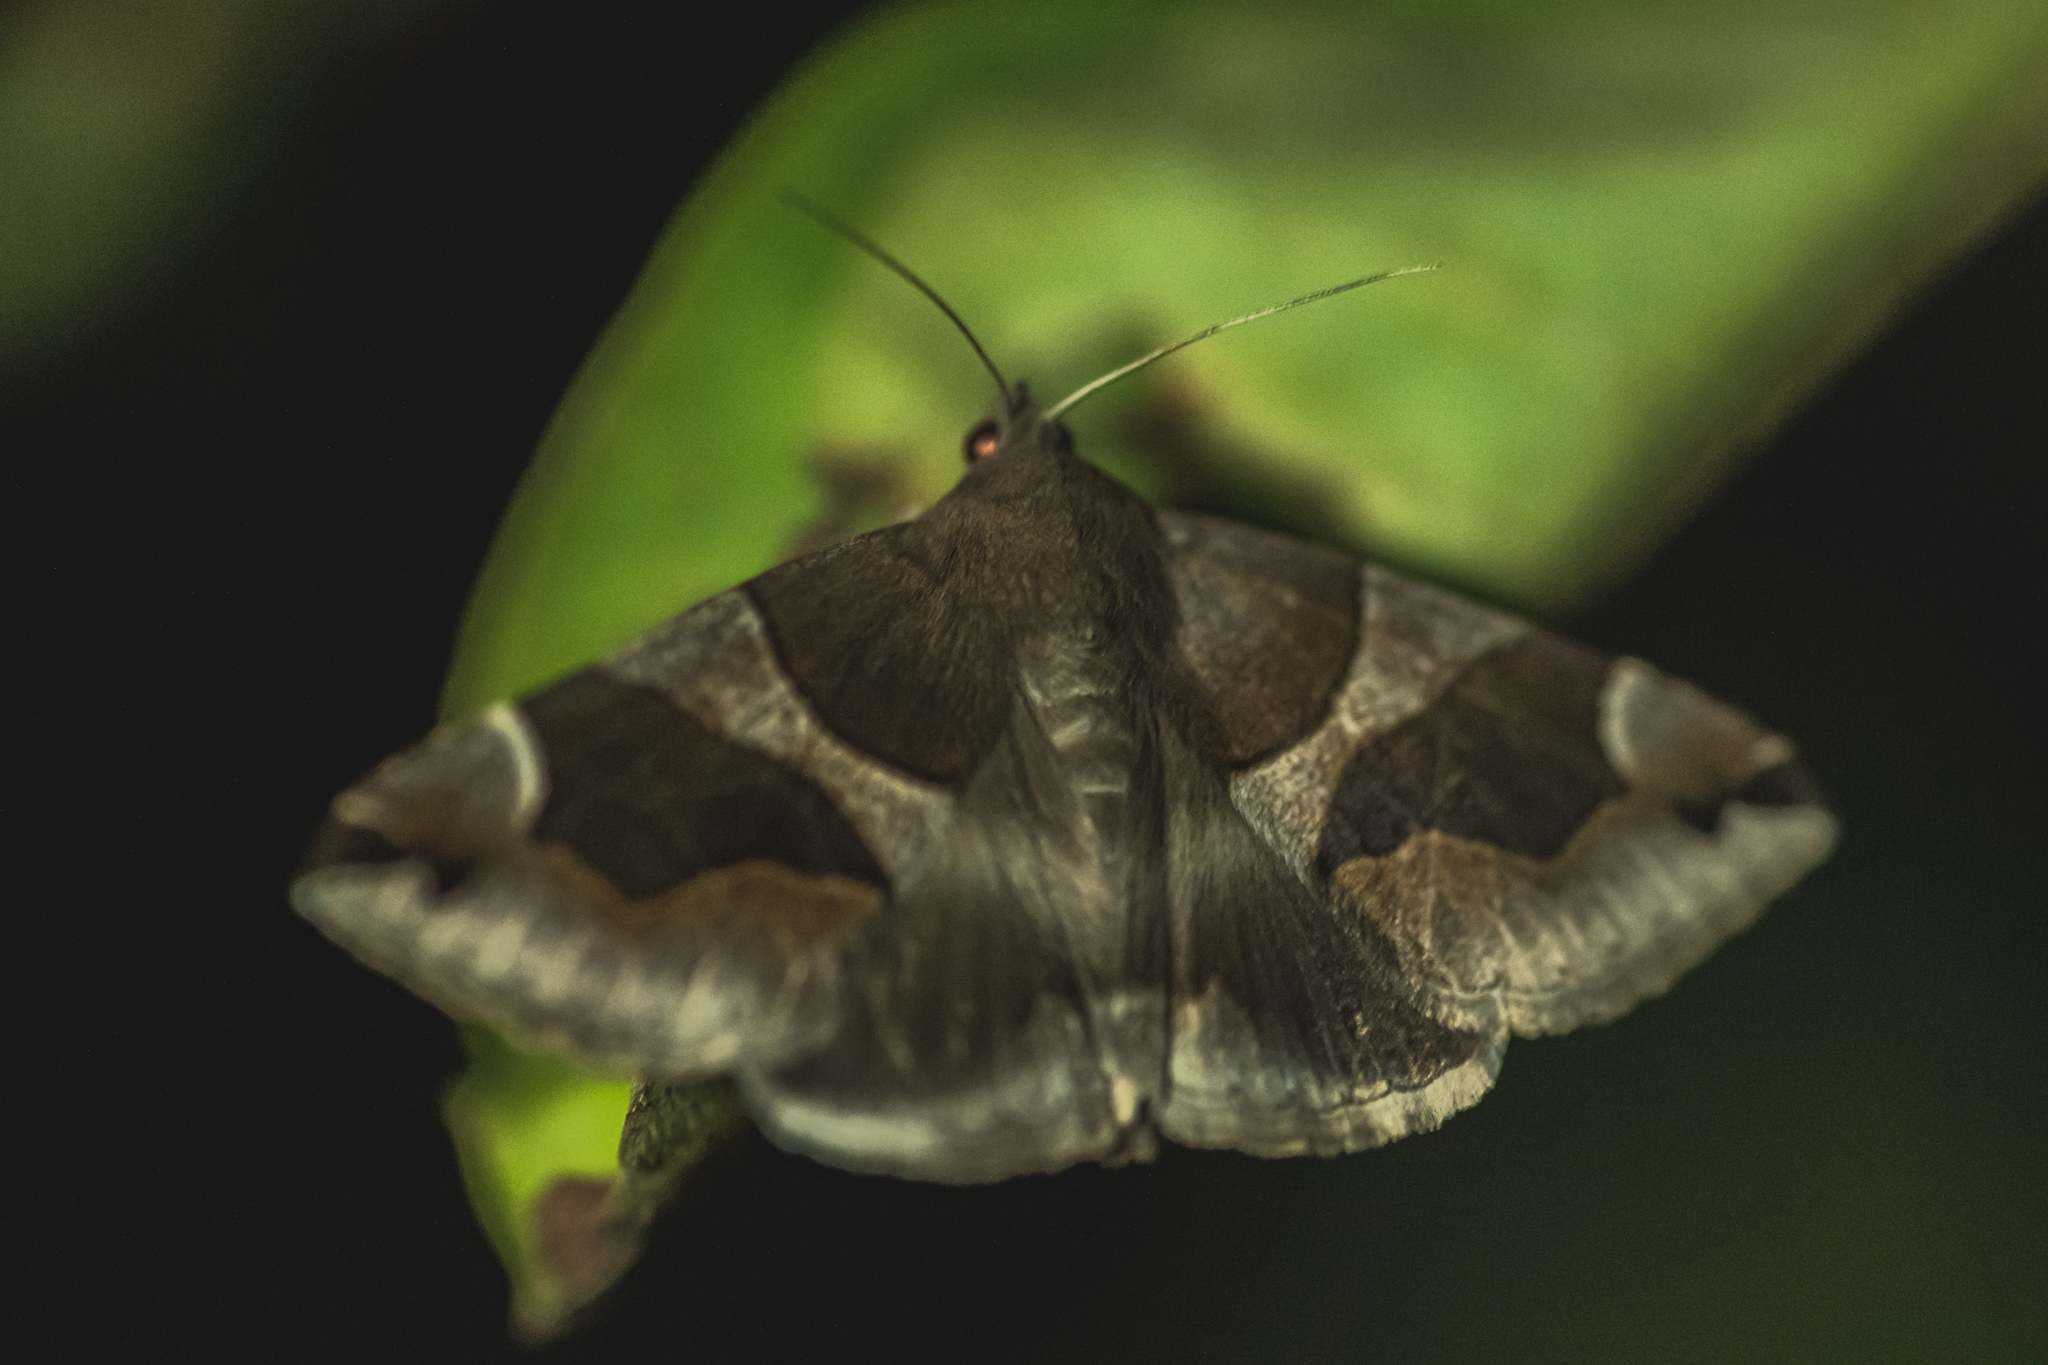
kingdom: Animalia
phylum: Arthropoda
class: Insecta
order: Lepidoptera
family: Erebidae
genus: Dysgonia
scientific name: Dysgonia algira
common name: Passenger
